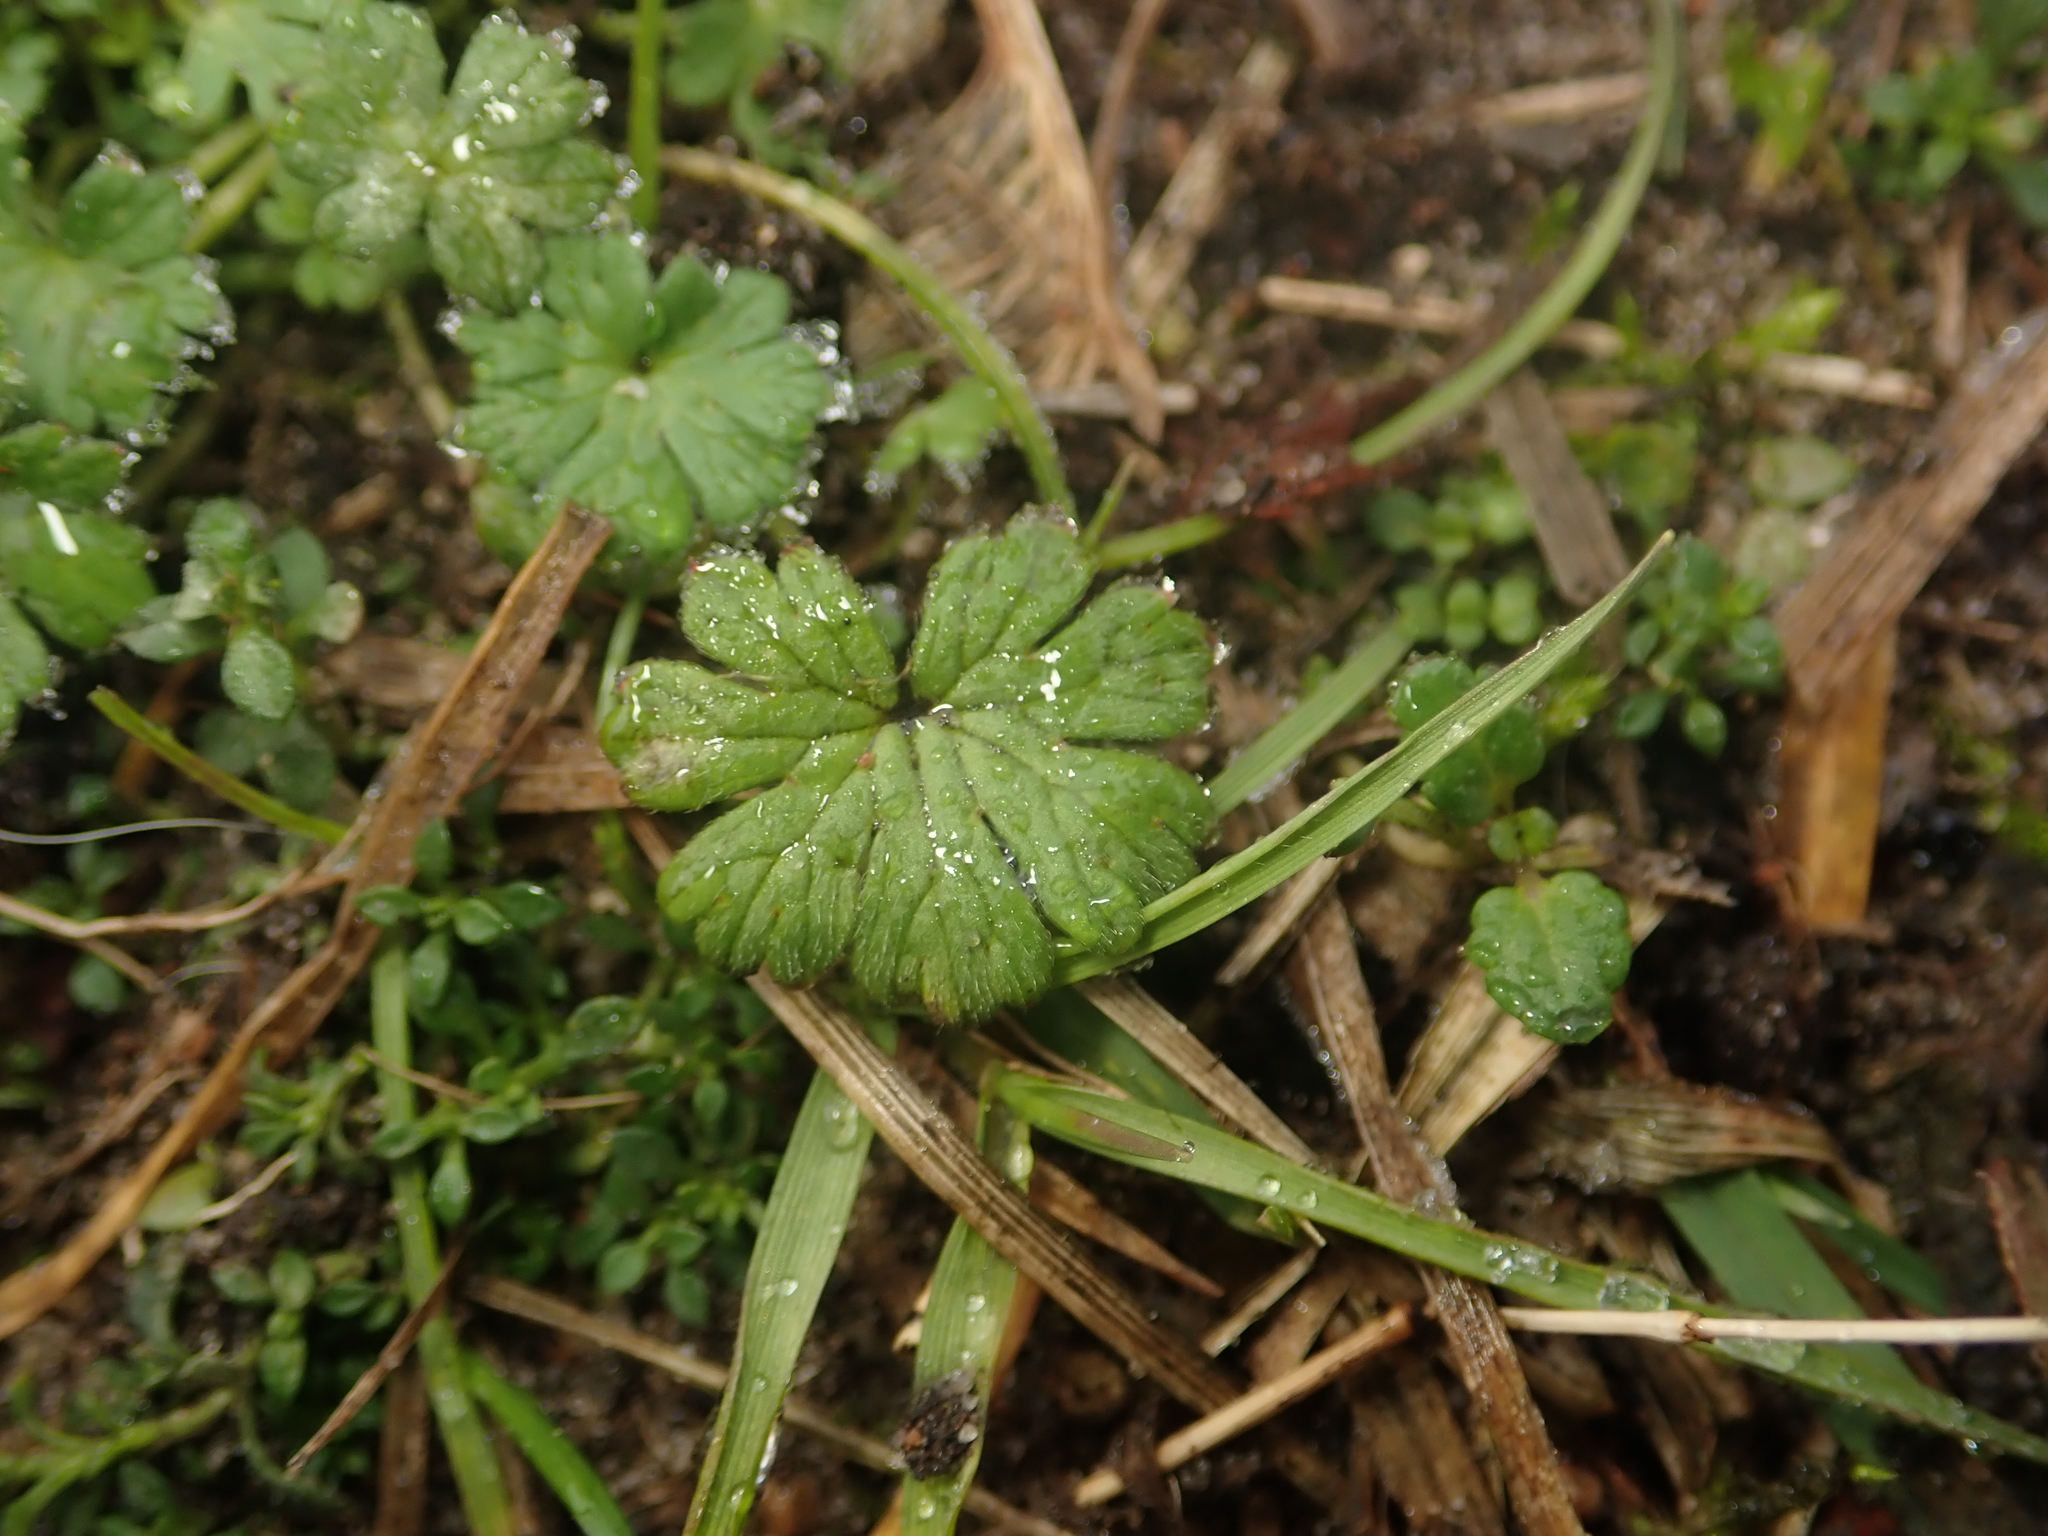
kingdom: Plantae
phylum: Tracheophyta
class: Magnoliopsida
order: Geraniales
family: Geraniaceae
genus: Geranium
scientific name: Geranium molle
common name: Dove's-foot crane's-bill
